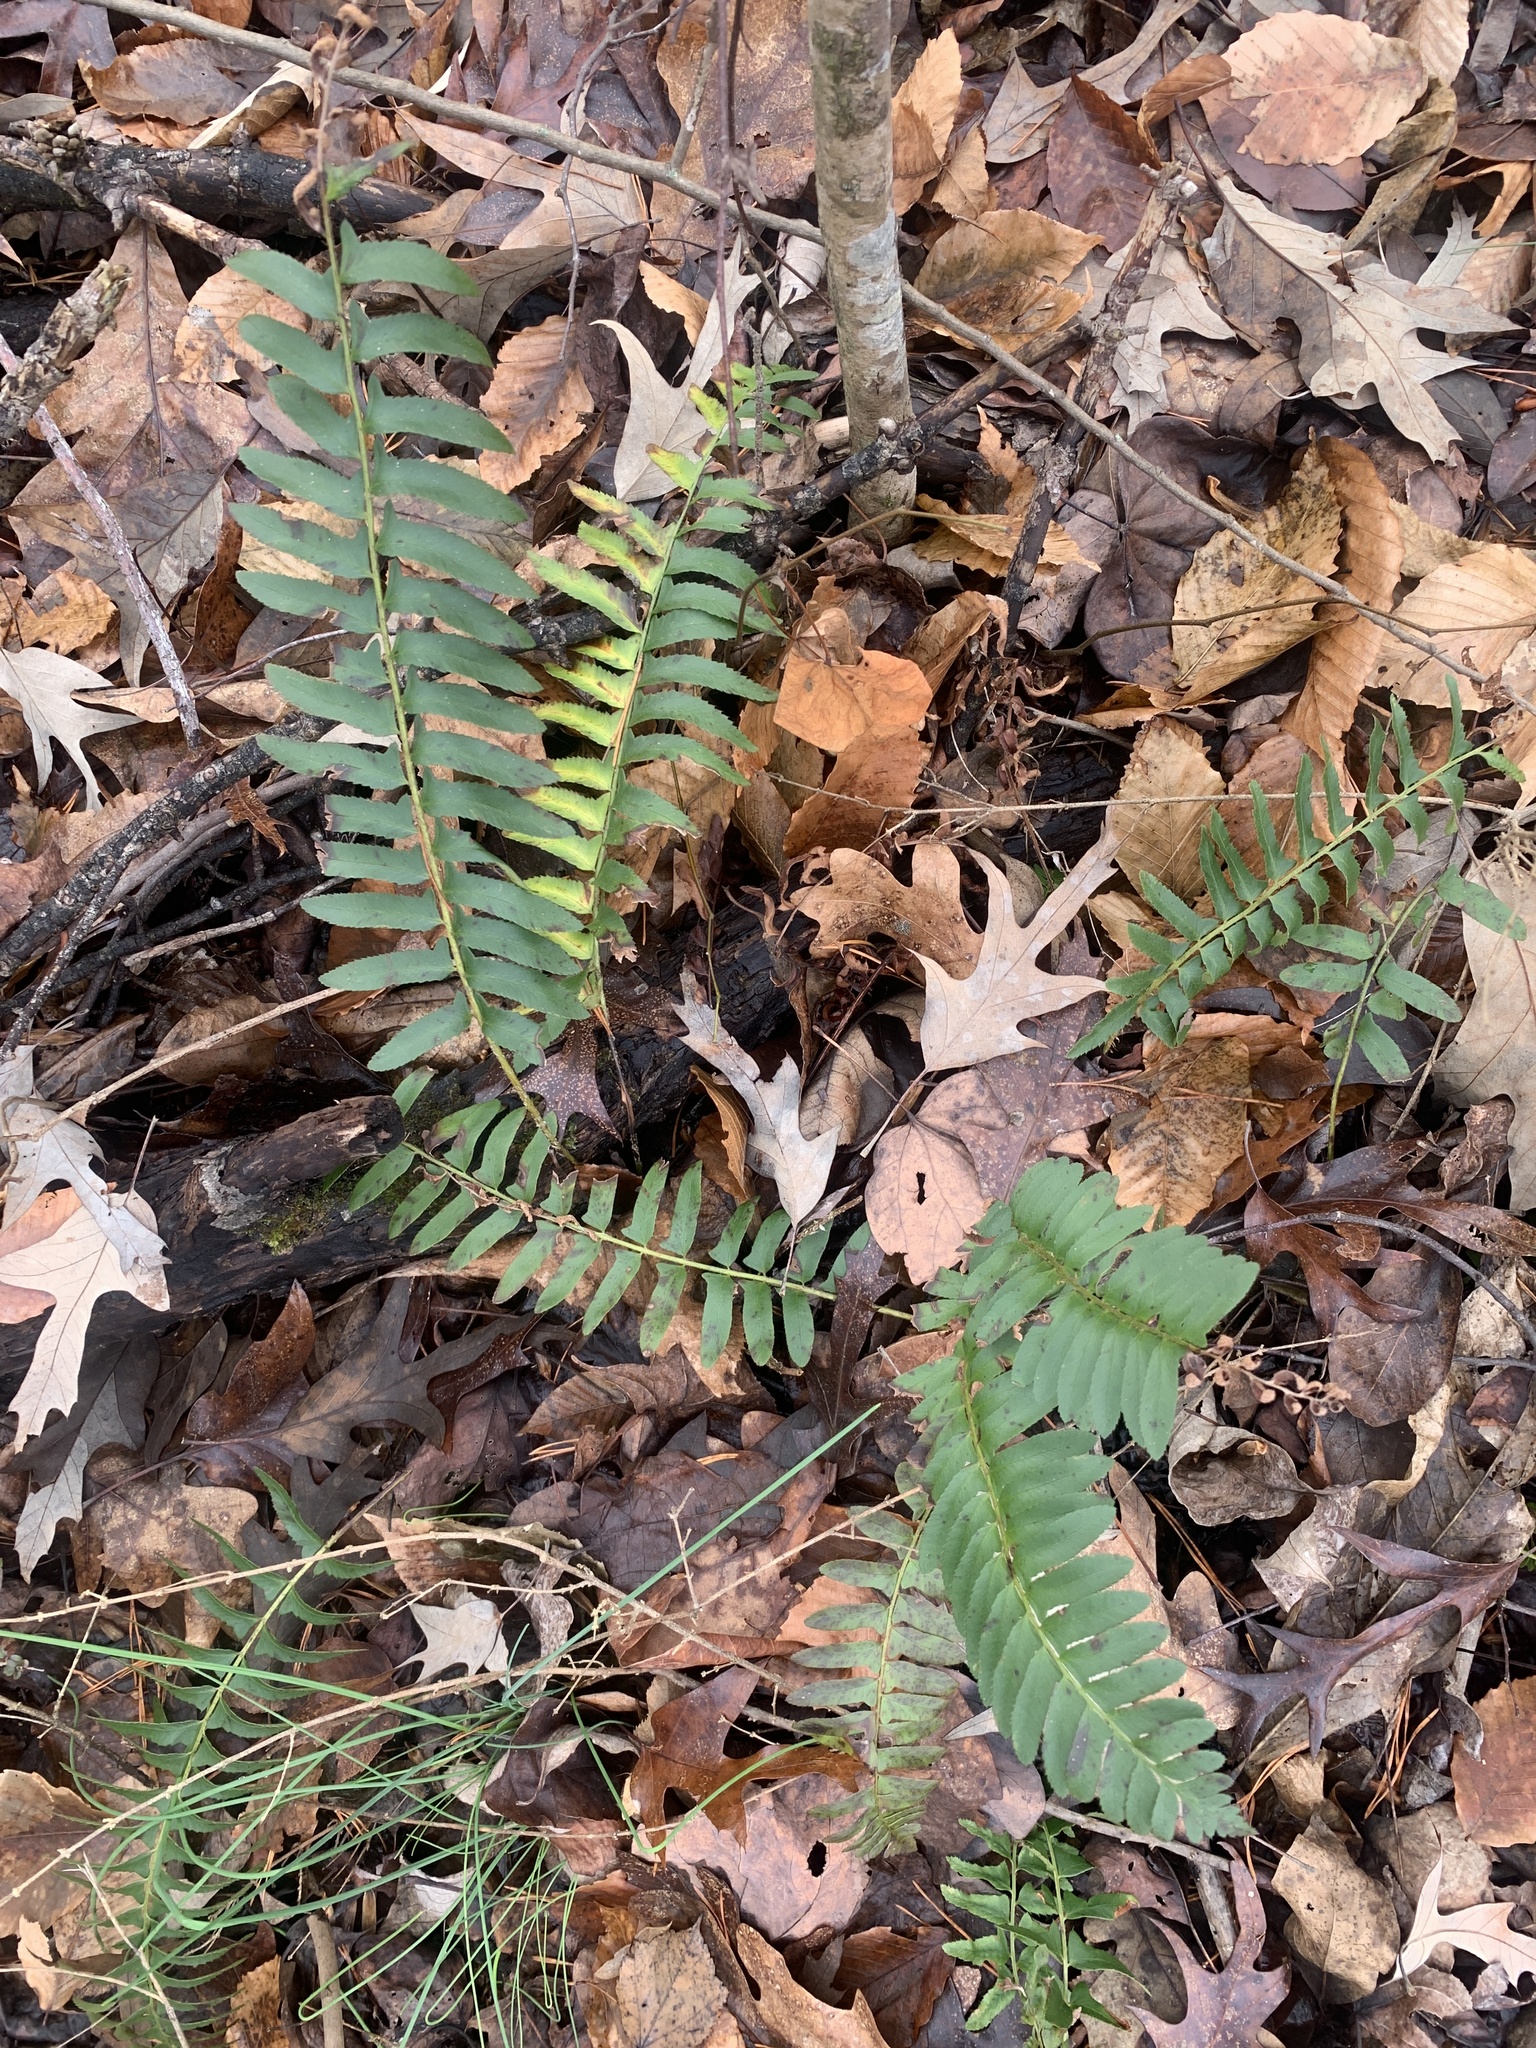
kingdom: Plantae
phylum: Tracheophyta
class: Polypodiopsida
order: Polypodiales
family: Dryopteridaceae
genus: Polystichum
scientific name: Polystichum acrostichoides
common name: Christmas fern
